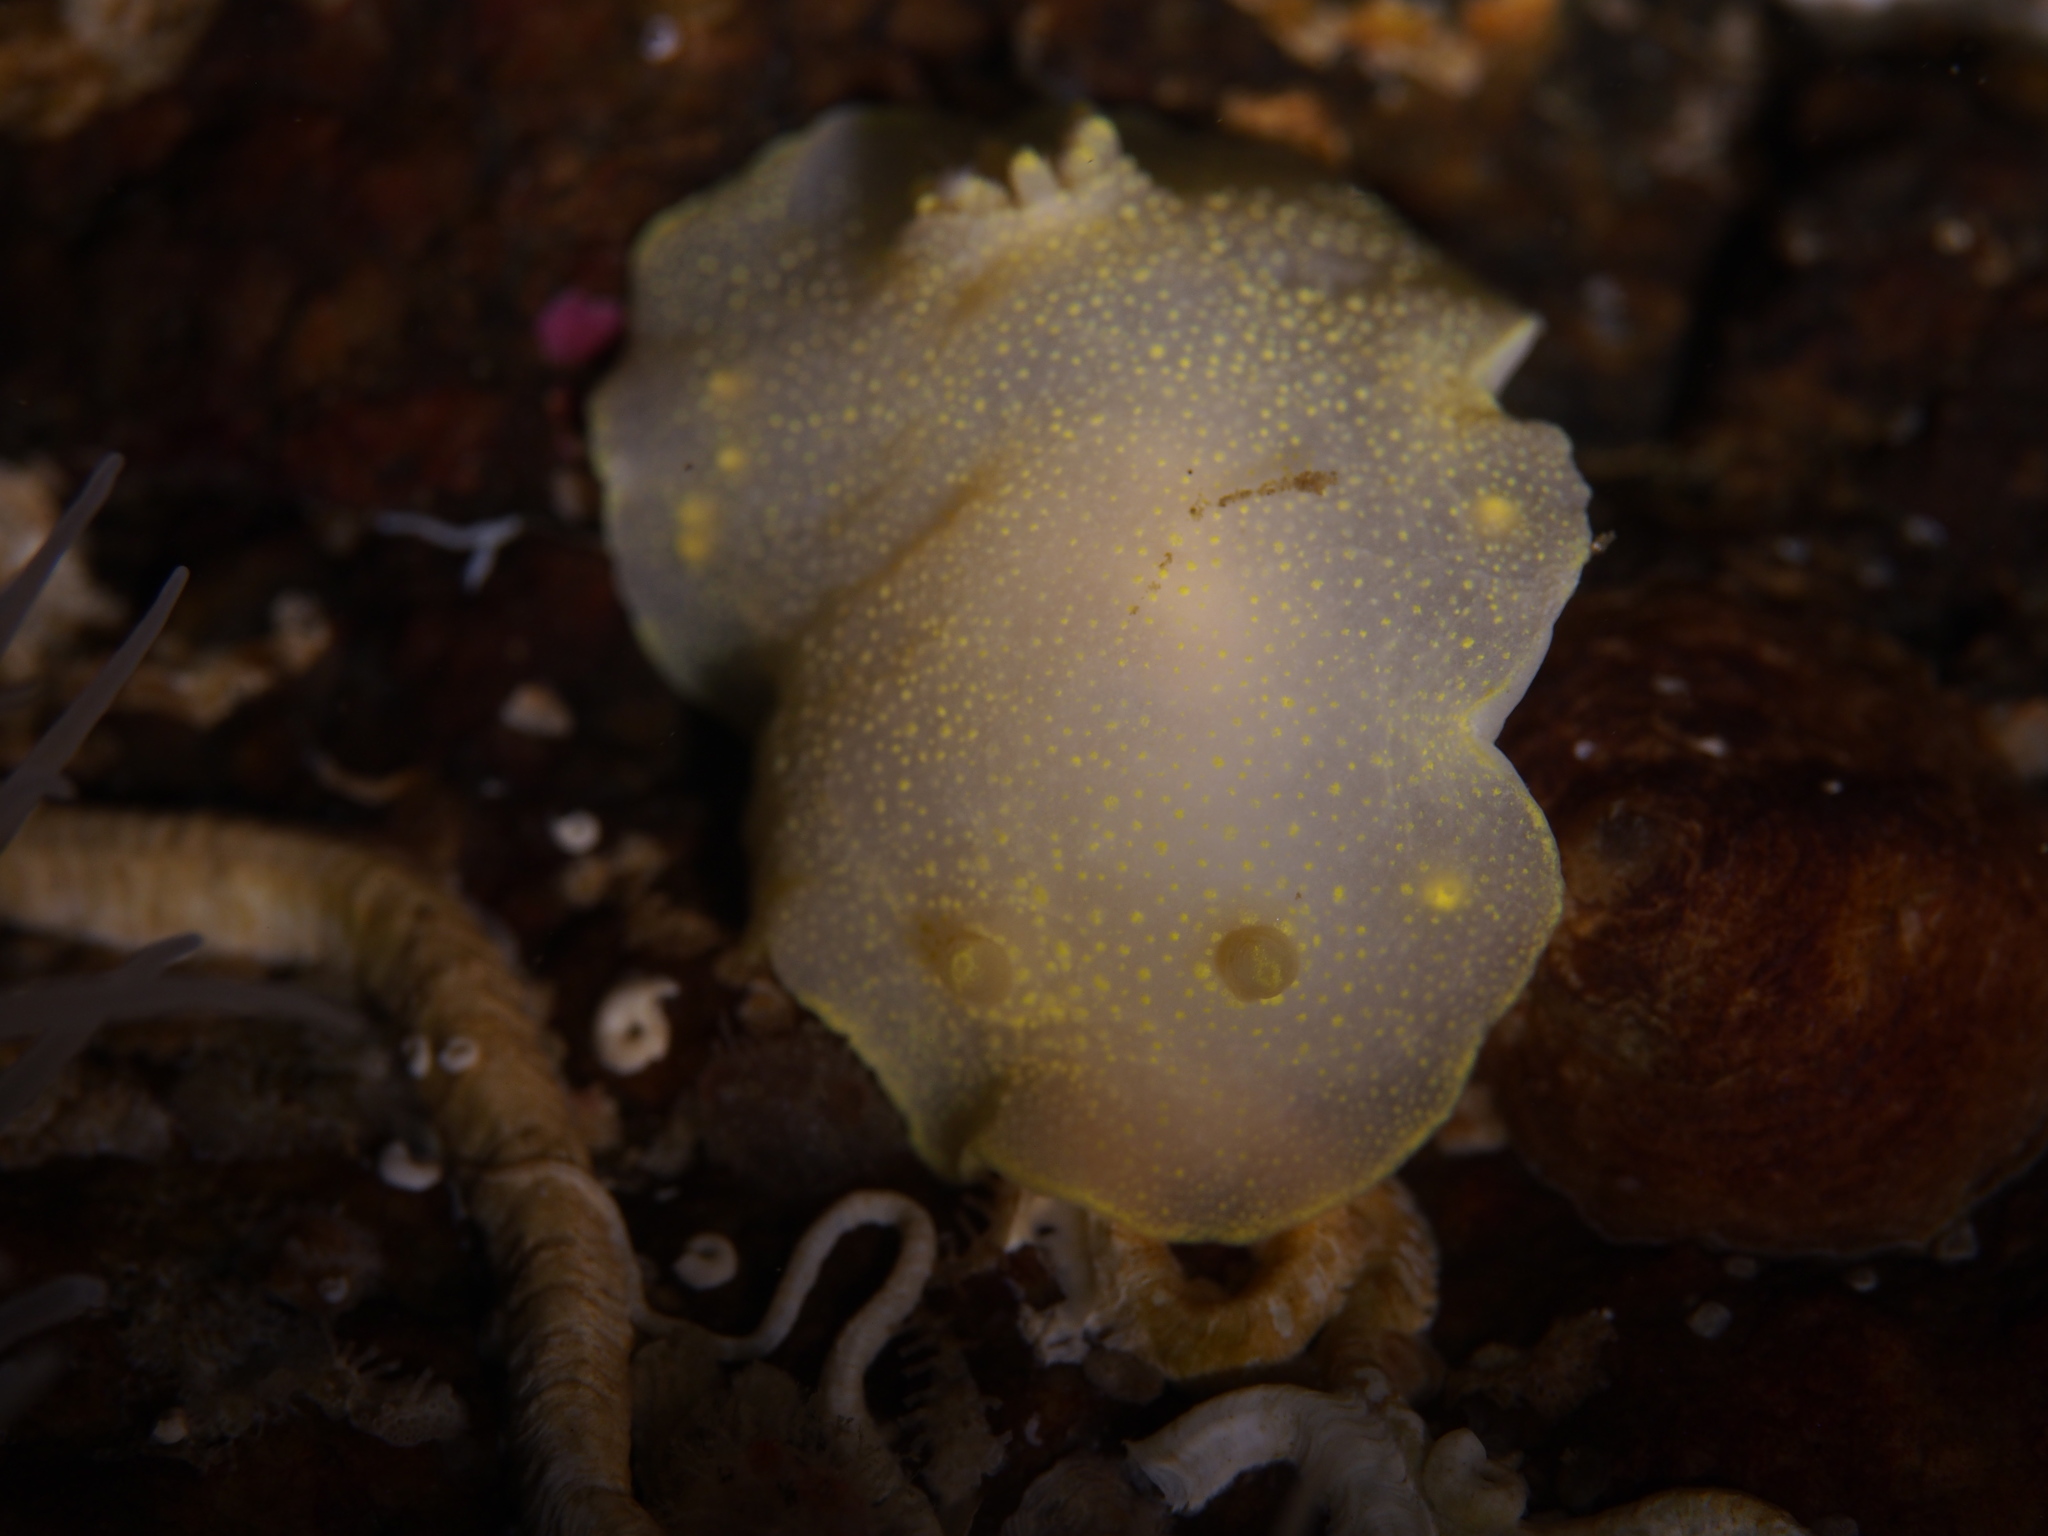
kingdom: Animalia
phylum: Mollusca
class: Gastropoda
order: Nudibranchia
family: Cadlinidae
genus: Cadlina
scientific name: Cadlina laevis
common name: White atlantic cadlina
